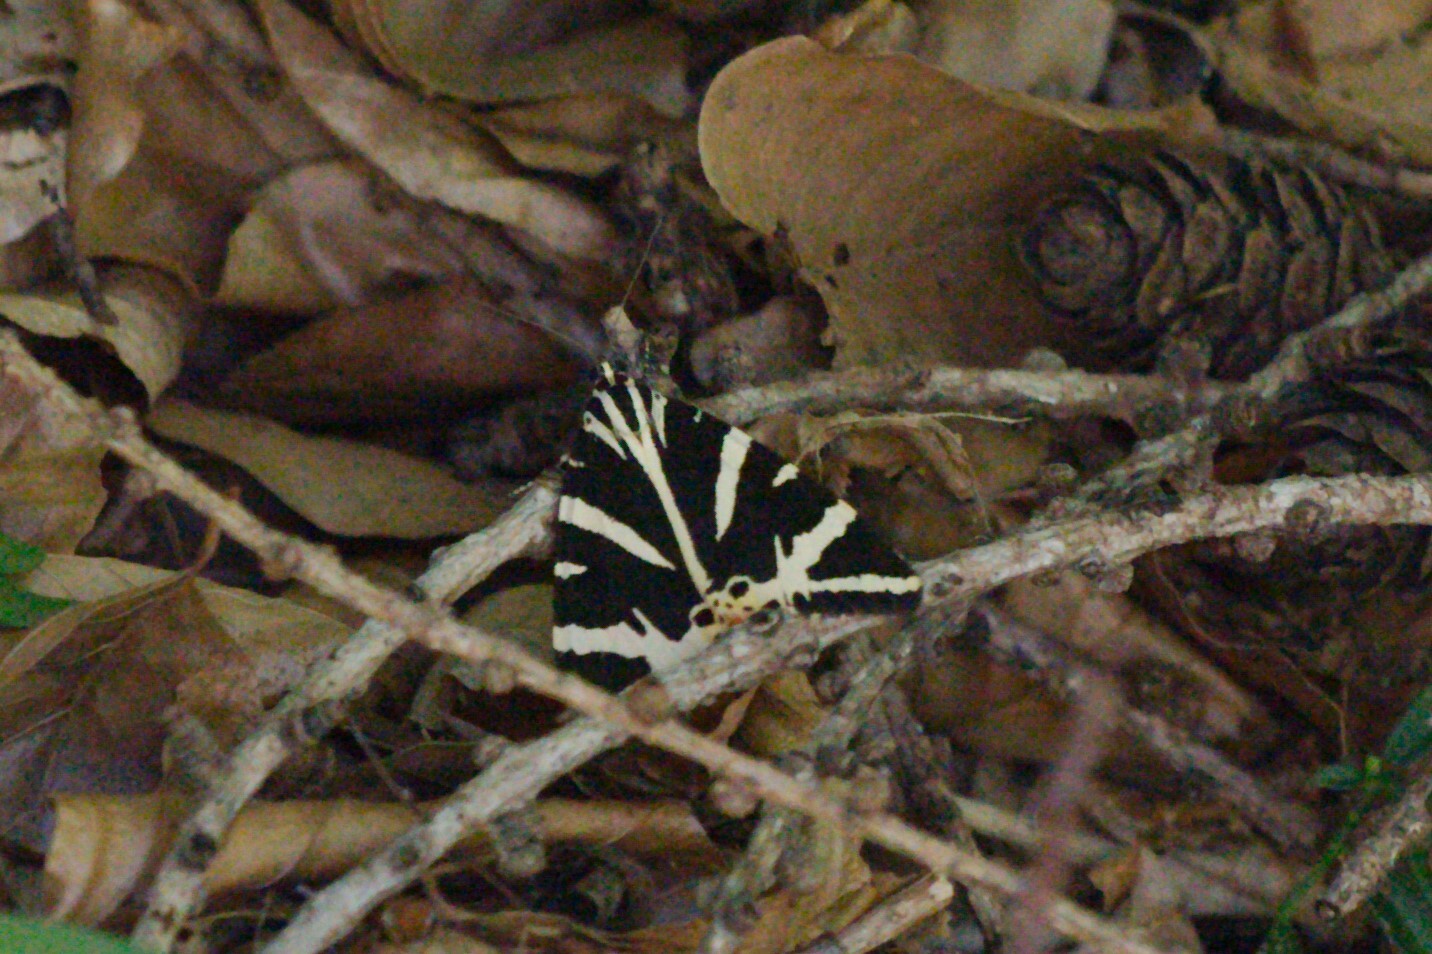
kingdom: Animalia
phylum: Arthropoda
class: Insecta
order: Lepidoptera
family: Erebidae
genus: Euplagia
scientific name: Euplagia quadripunctaria
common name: Jersey tiger
